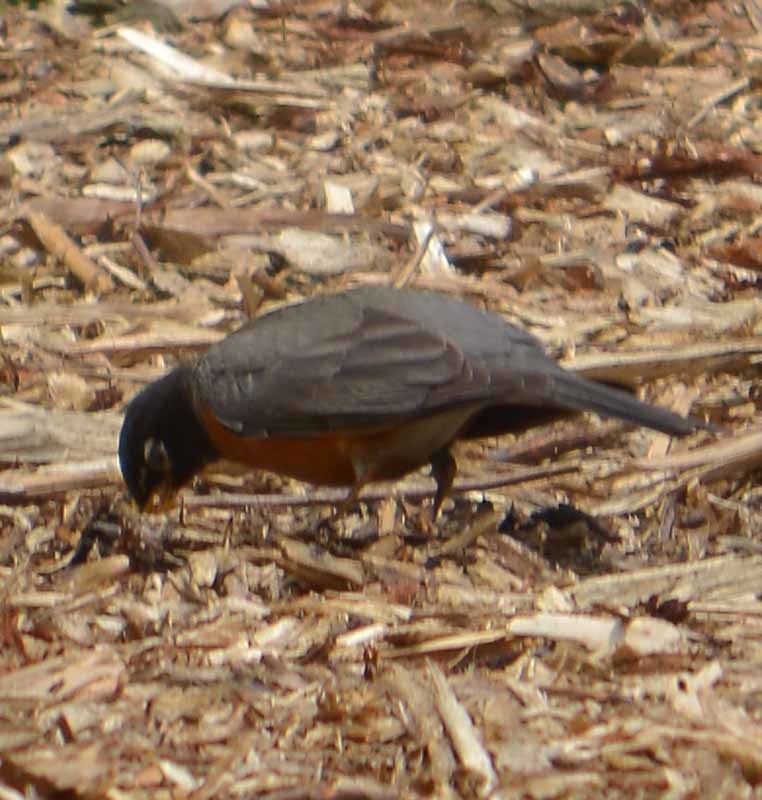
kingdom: Animalia
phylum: Chordata
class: Aves
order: Passeriformes
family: Turdidae
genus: Turdus
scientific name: Turdus migratorius
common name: American robin
